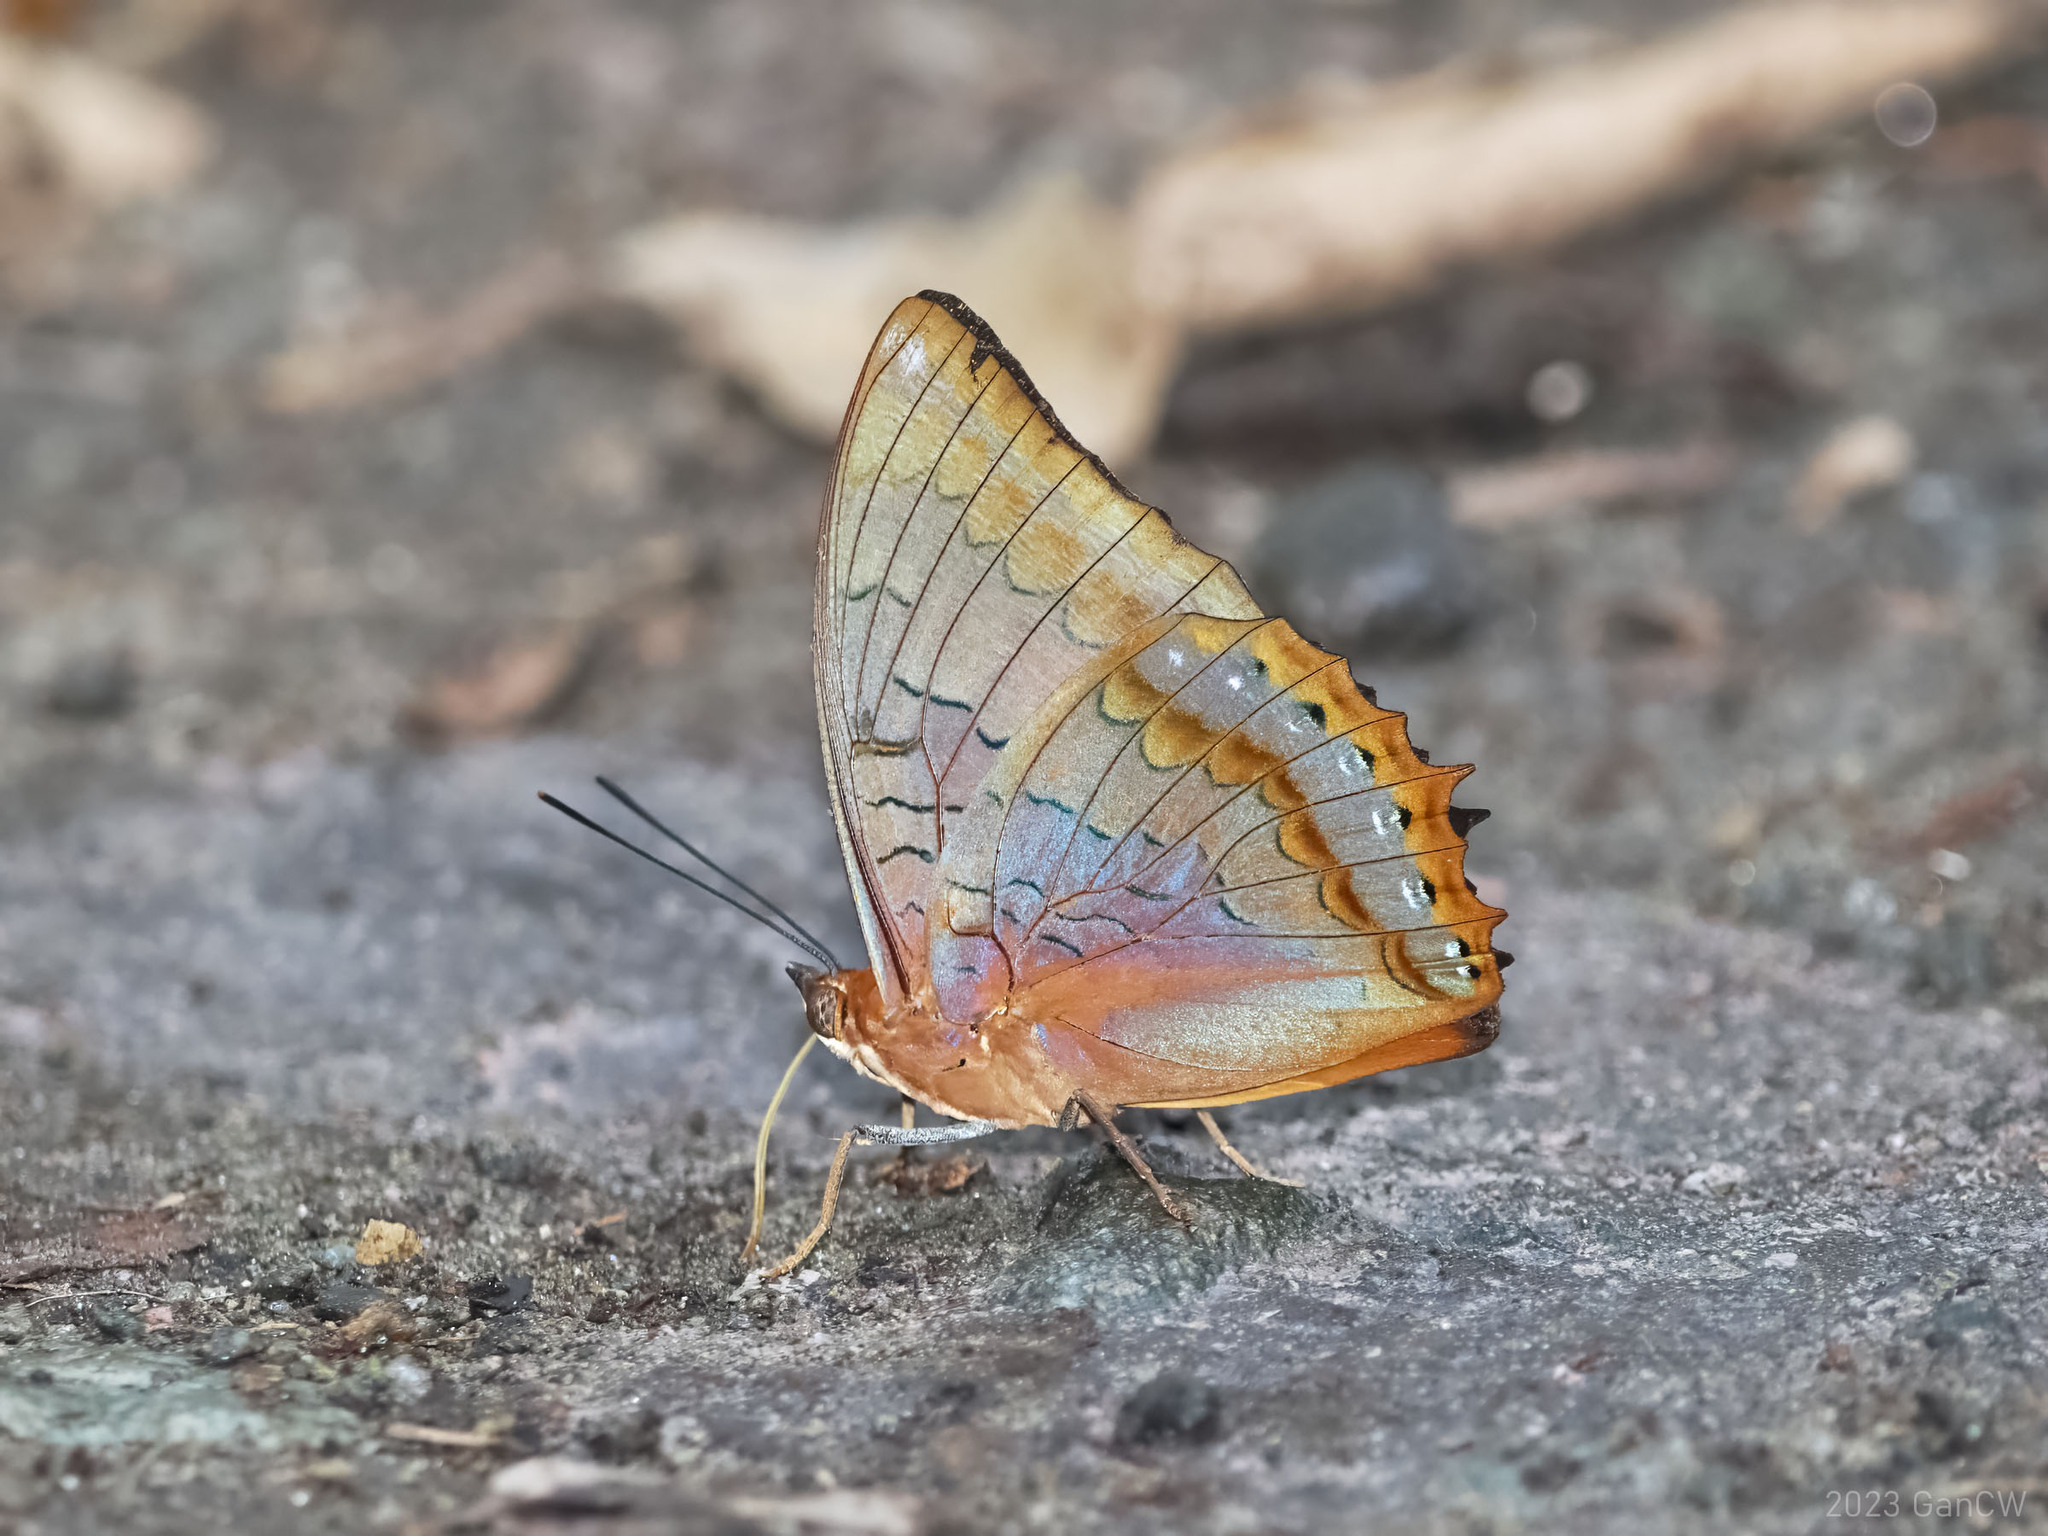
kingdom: Animalia
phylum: Arthropoda
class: Insecta
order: Lepidoptera
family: Nymphalidae
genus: Charaxes
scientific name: Charaxes latona
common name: Orange emperor
